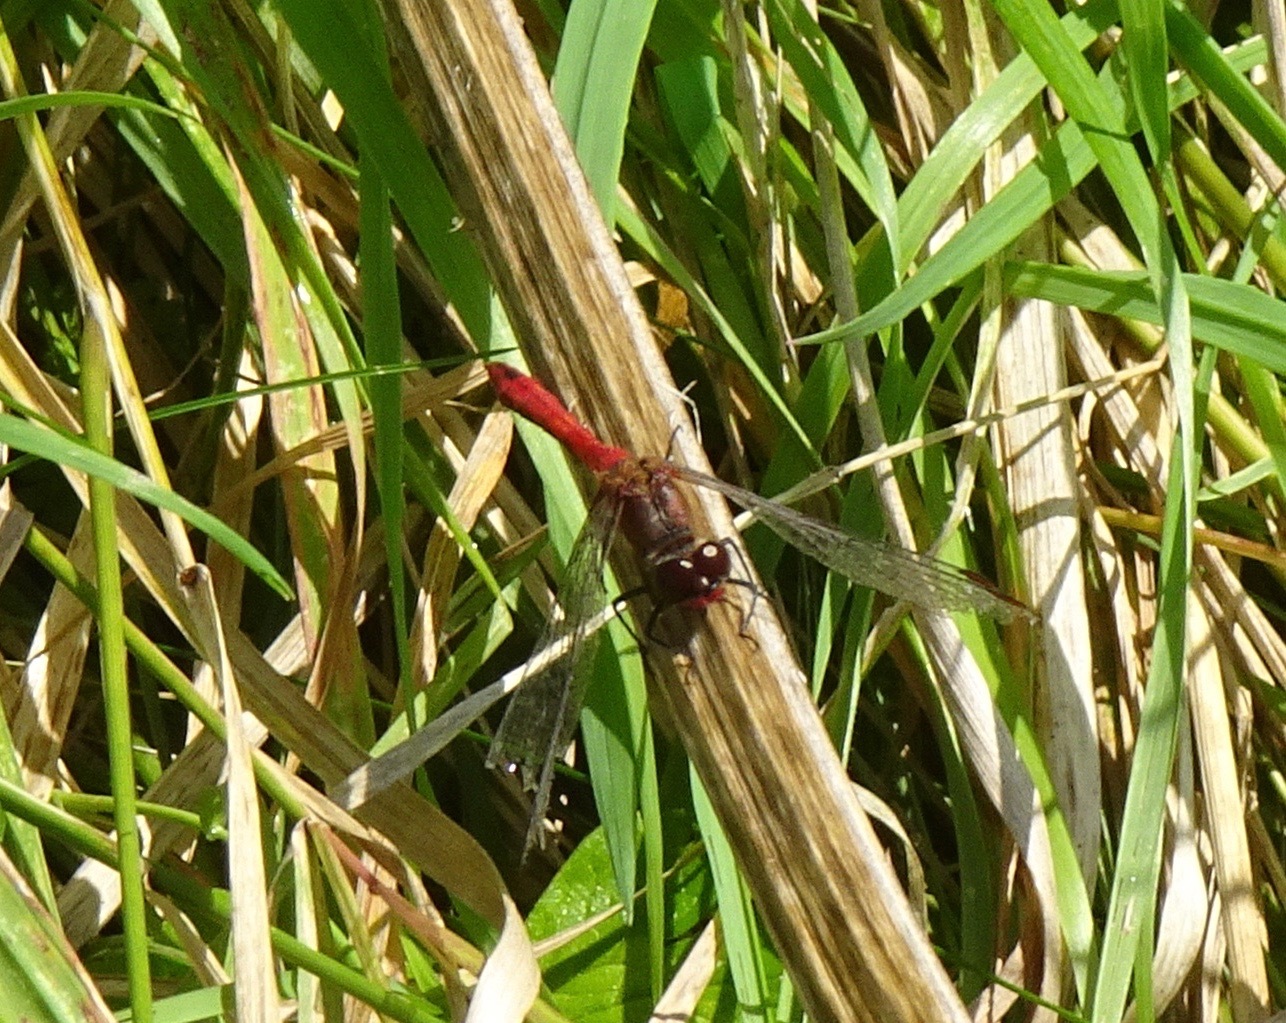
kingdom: Animalia
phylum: Arthropoda
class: Insecta
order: Odonata
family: Libellulidae
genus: Sympetrum
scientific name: Sympetrum sanguineum
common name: Ruddy darter
